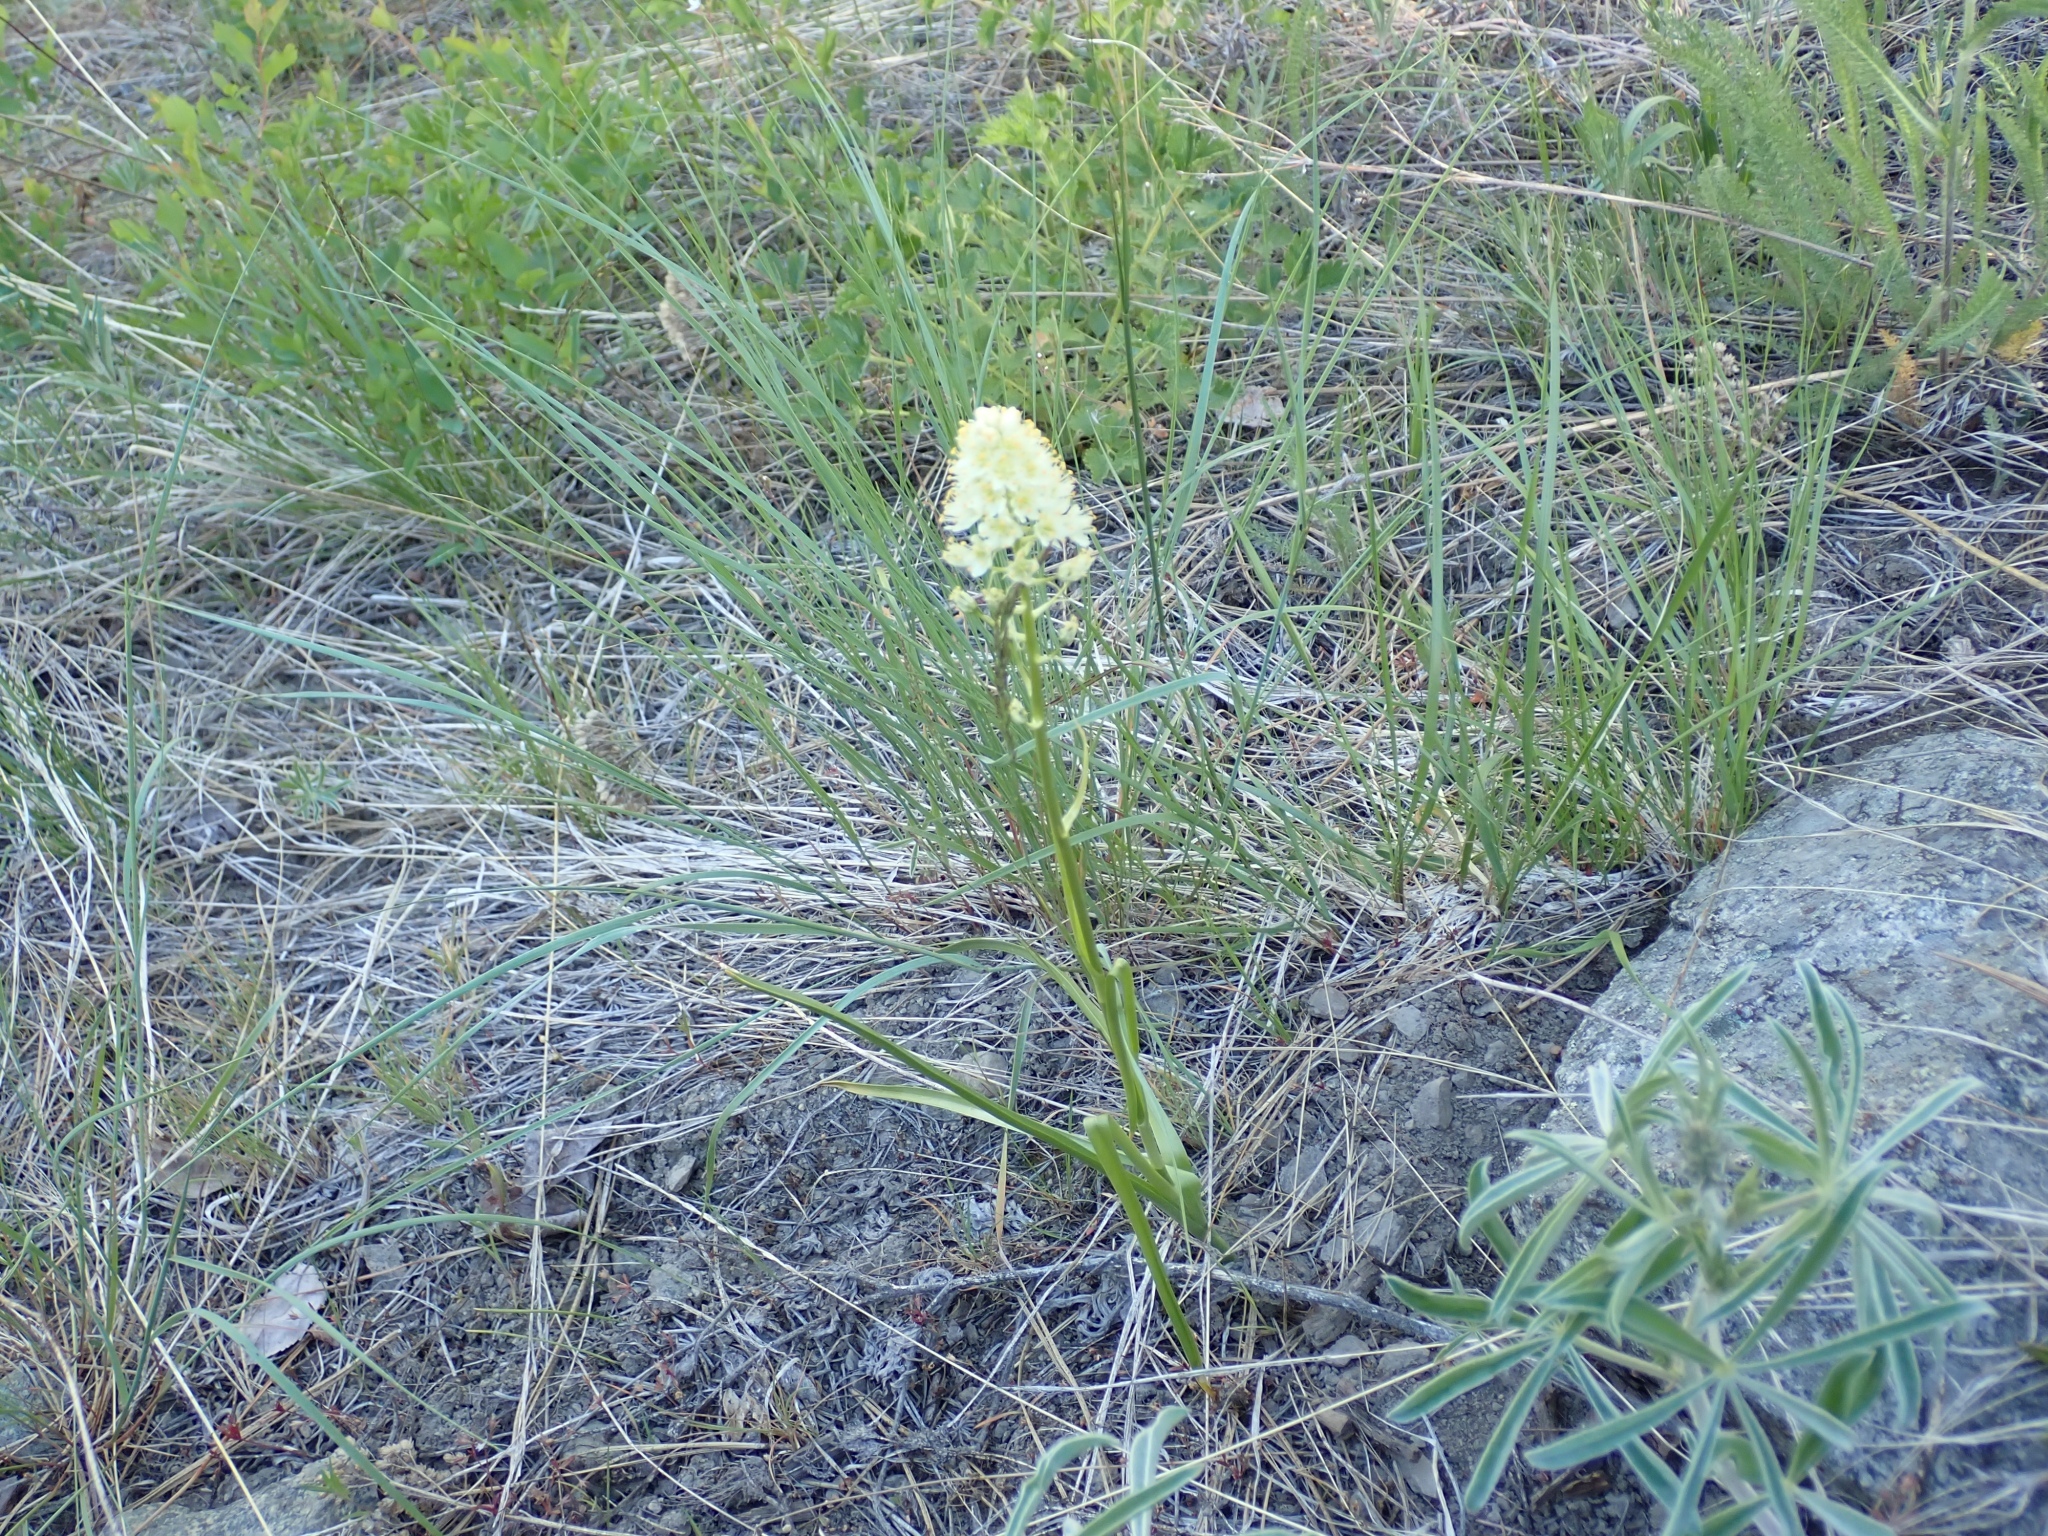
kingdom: Plantae
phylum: Tracheophyta
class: Liliopsida
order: Liliales
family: Melanthiaceae
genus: Toxicoscordion
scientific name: Toxicoscordion venenosum
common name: Meadow death camas
